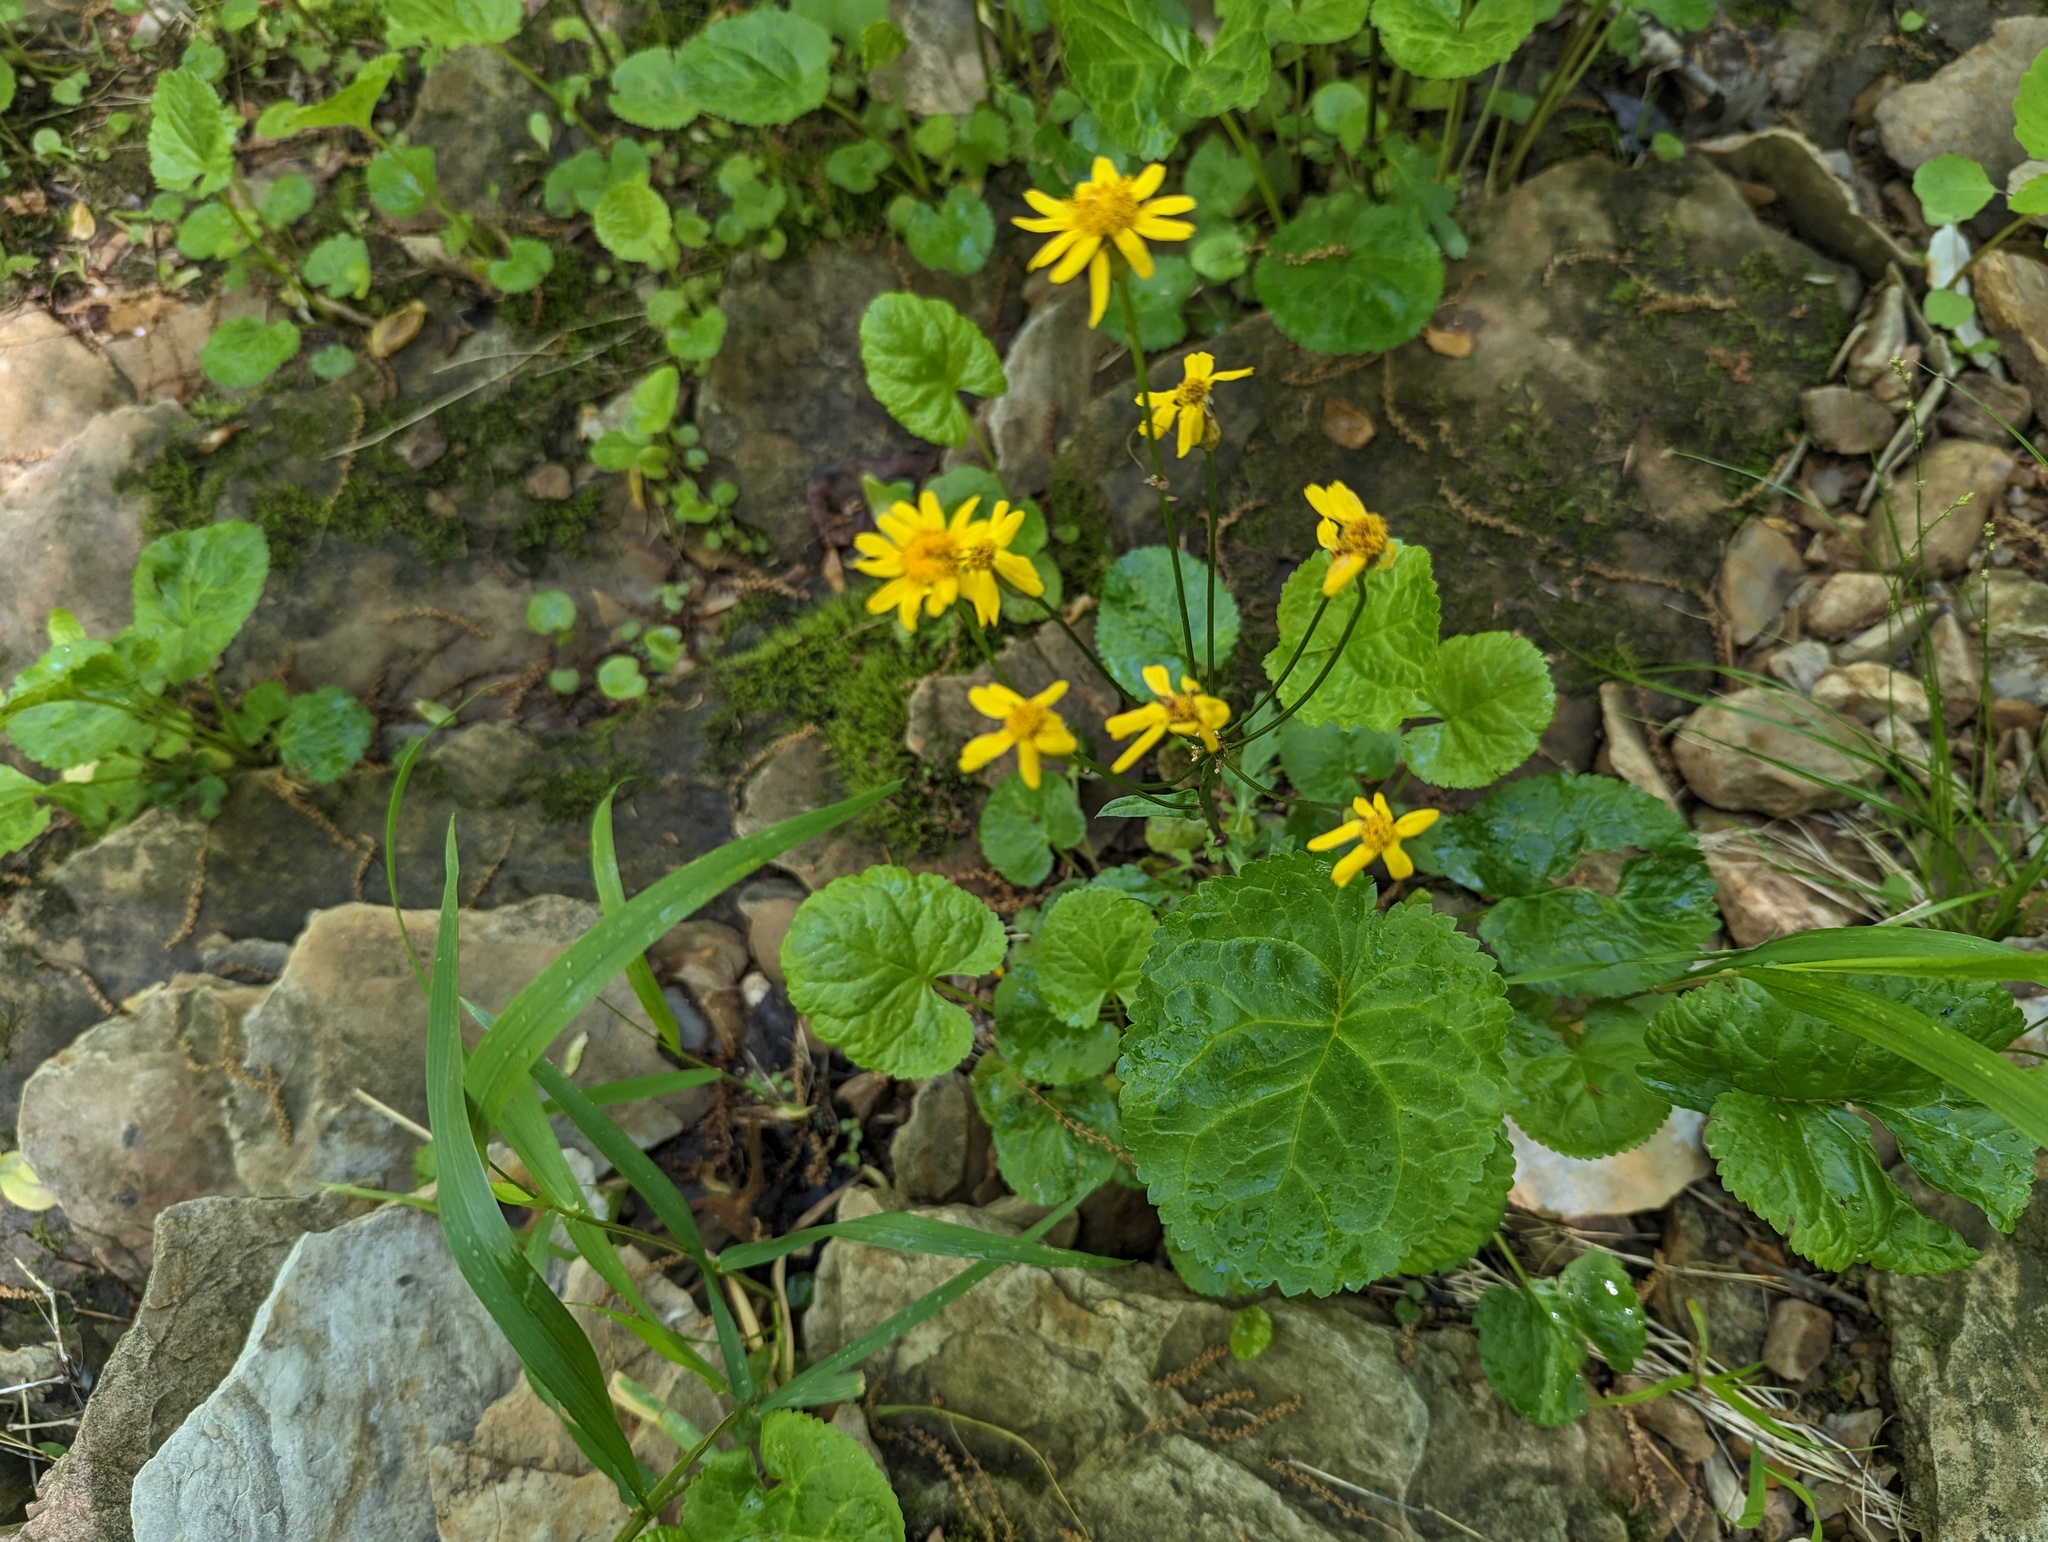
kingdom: Plantae
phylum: Tracheophyta
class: Magnoliopsida
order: Asterales
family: Asteraceae
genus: Packera
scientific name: Packera aurea
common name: Golden groundsel
